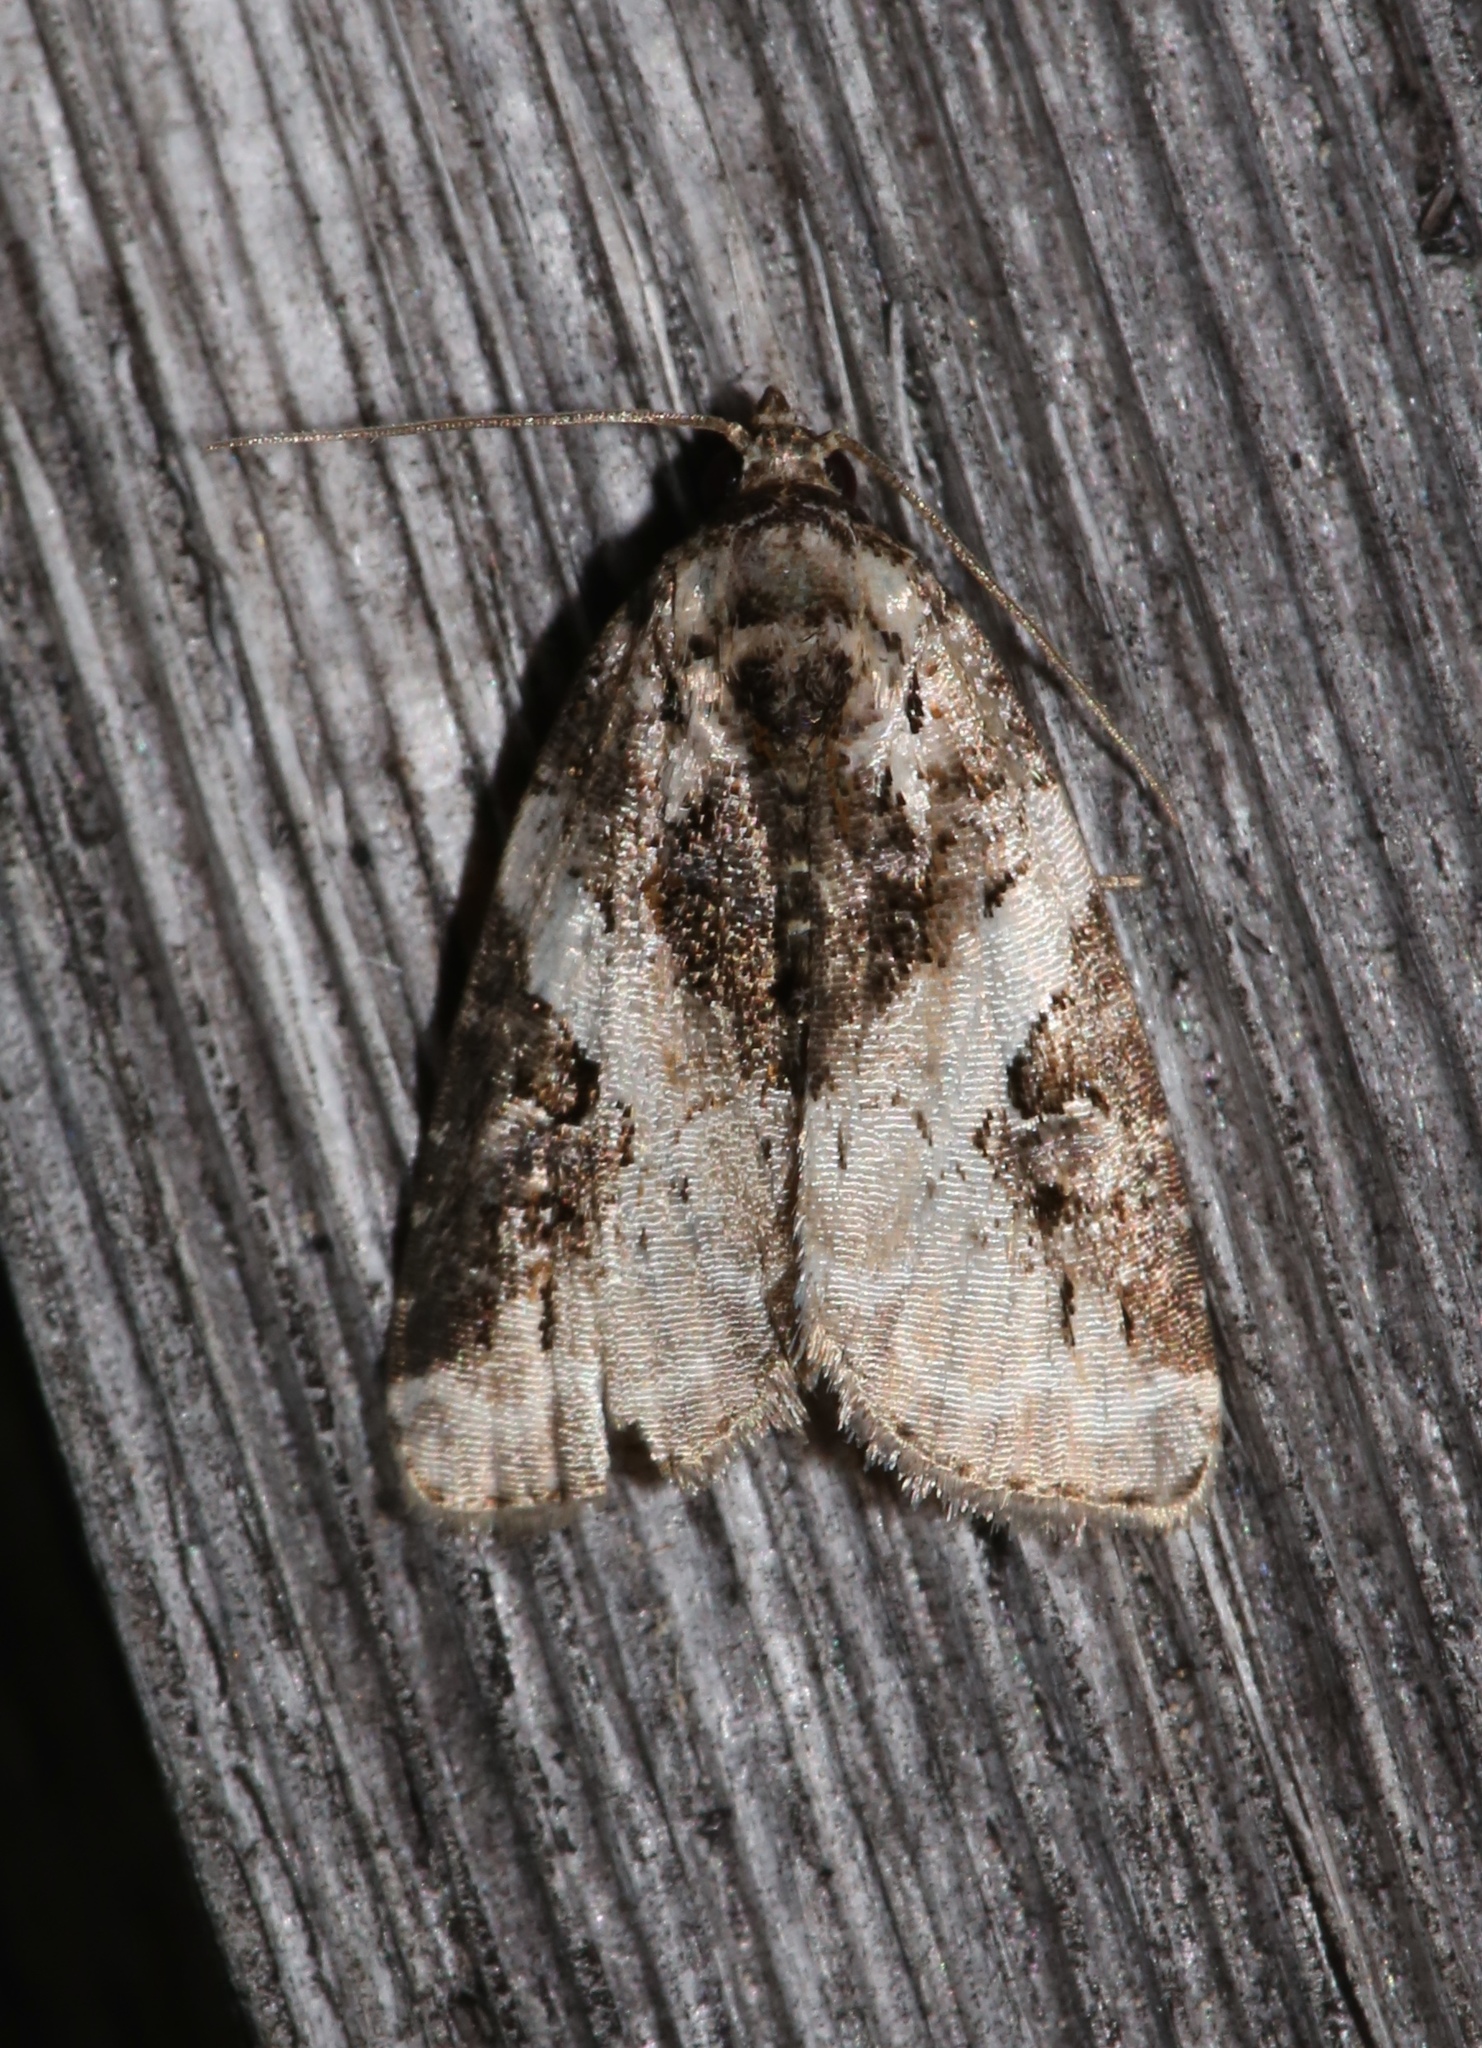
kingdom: Animalia
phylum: Arthropoda
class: Insecta
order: Lepidoptera
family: Noctuidae
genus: Pseudeustrotia
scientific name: Pseudeustrotia carneola
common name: Pink-barred lithacodia moth
